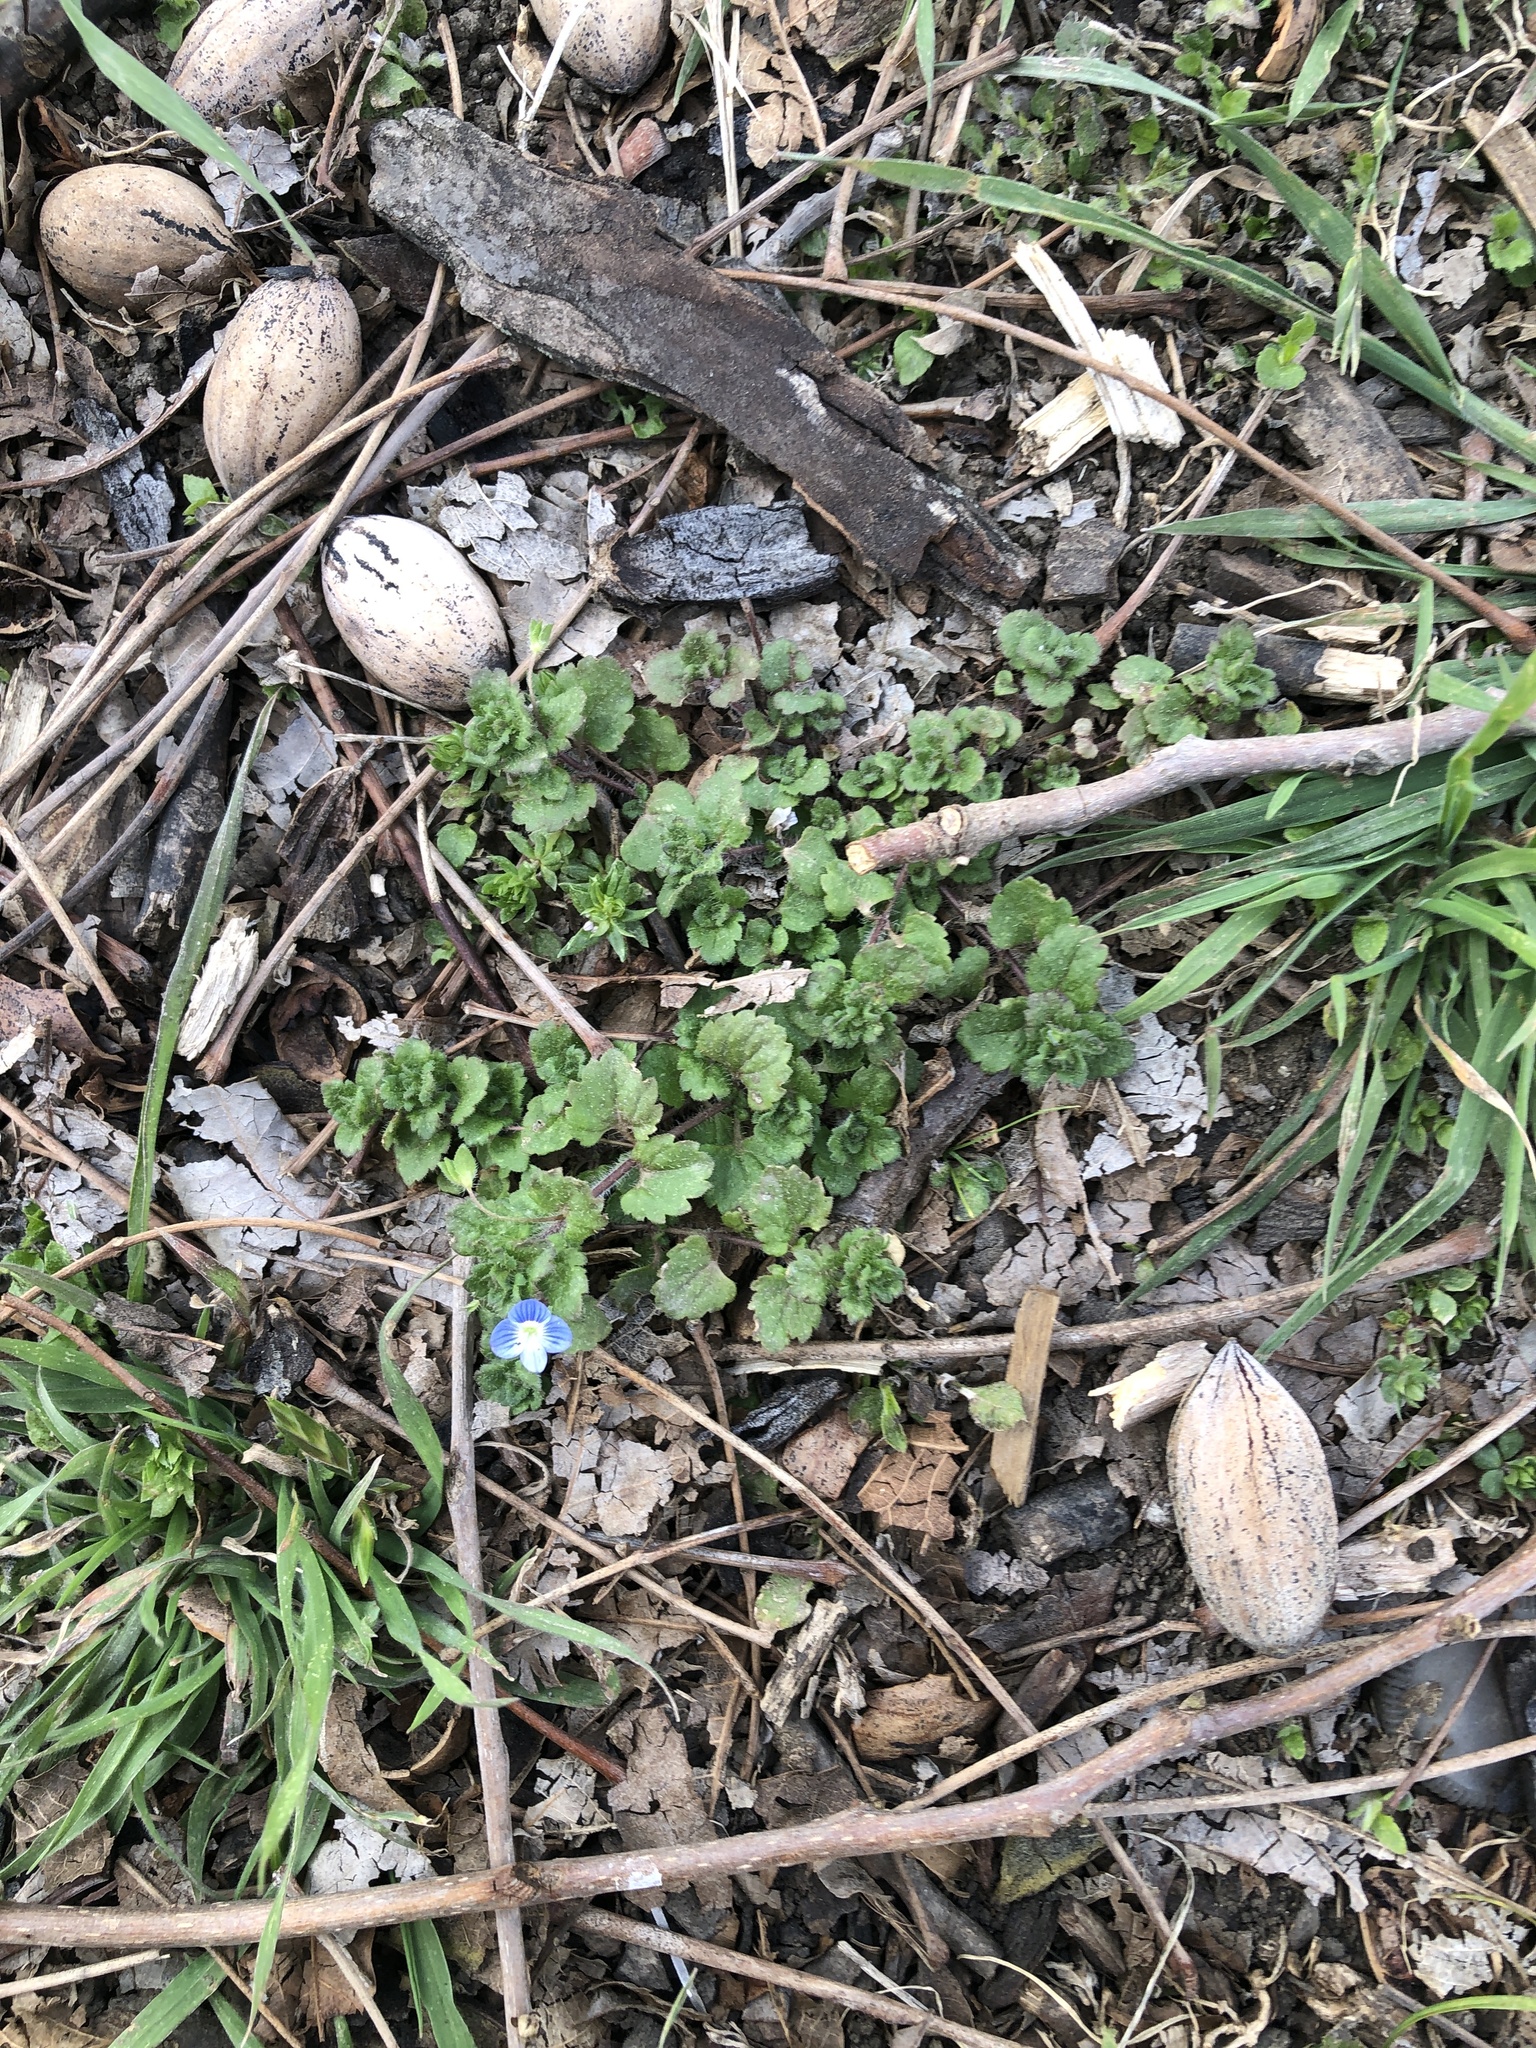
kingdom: Plantae
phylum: Tracheophyta
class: Magnoliopsida
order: Lamiales
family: Plantaginaceae
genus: Veronica
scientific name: Veronica persica
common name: Common field-speedwell
